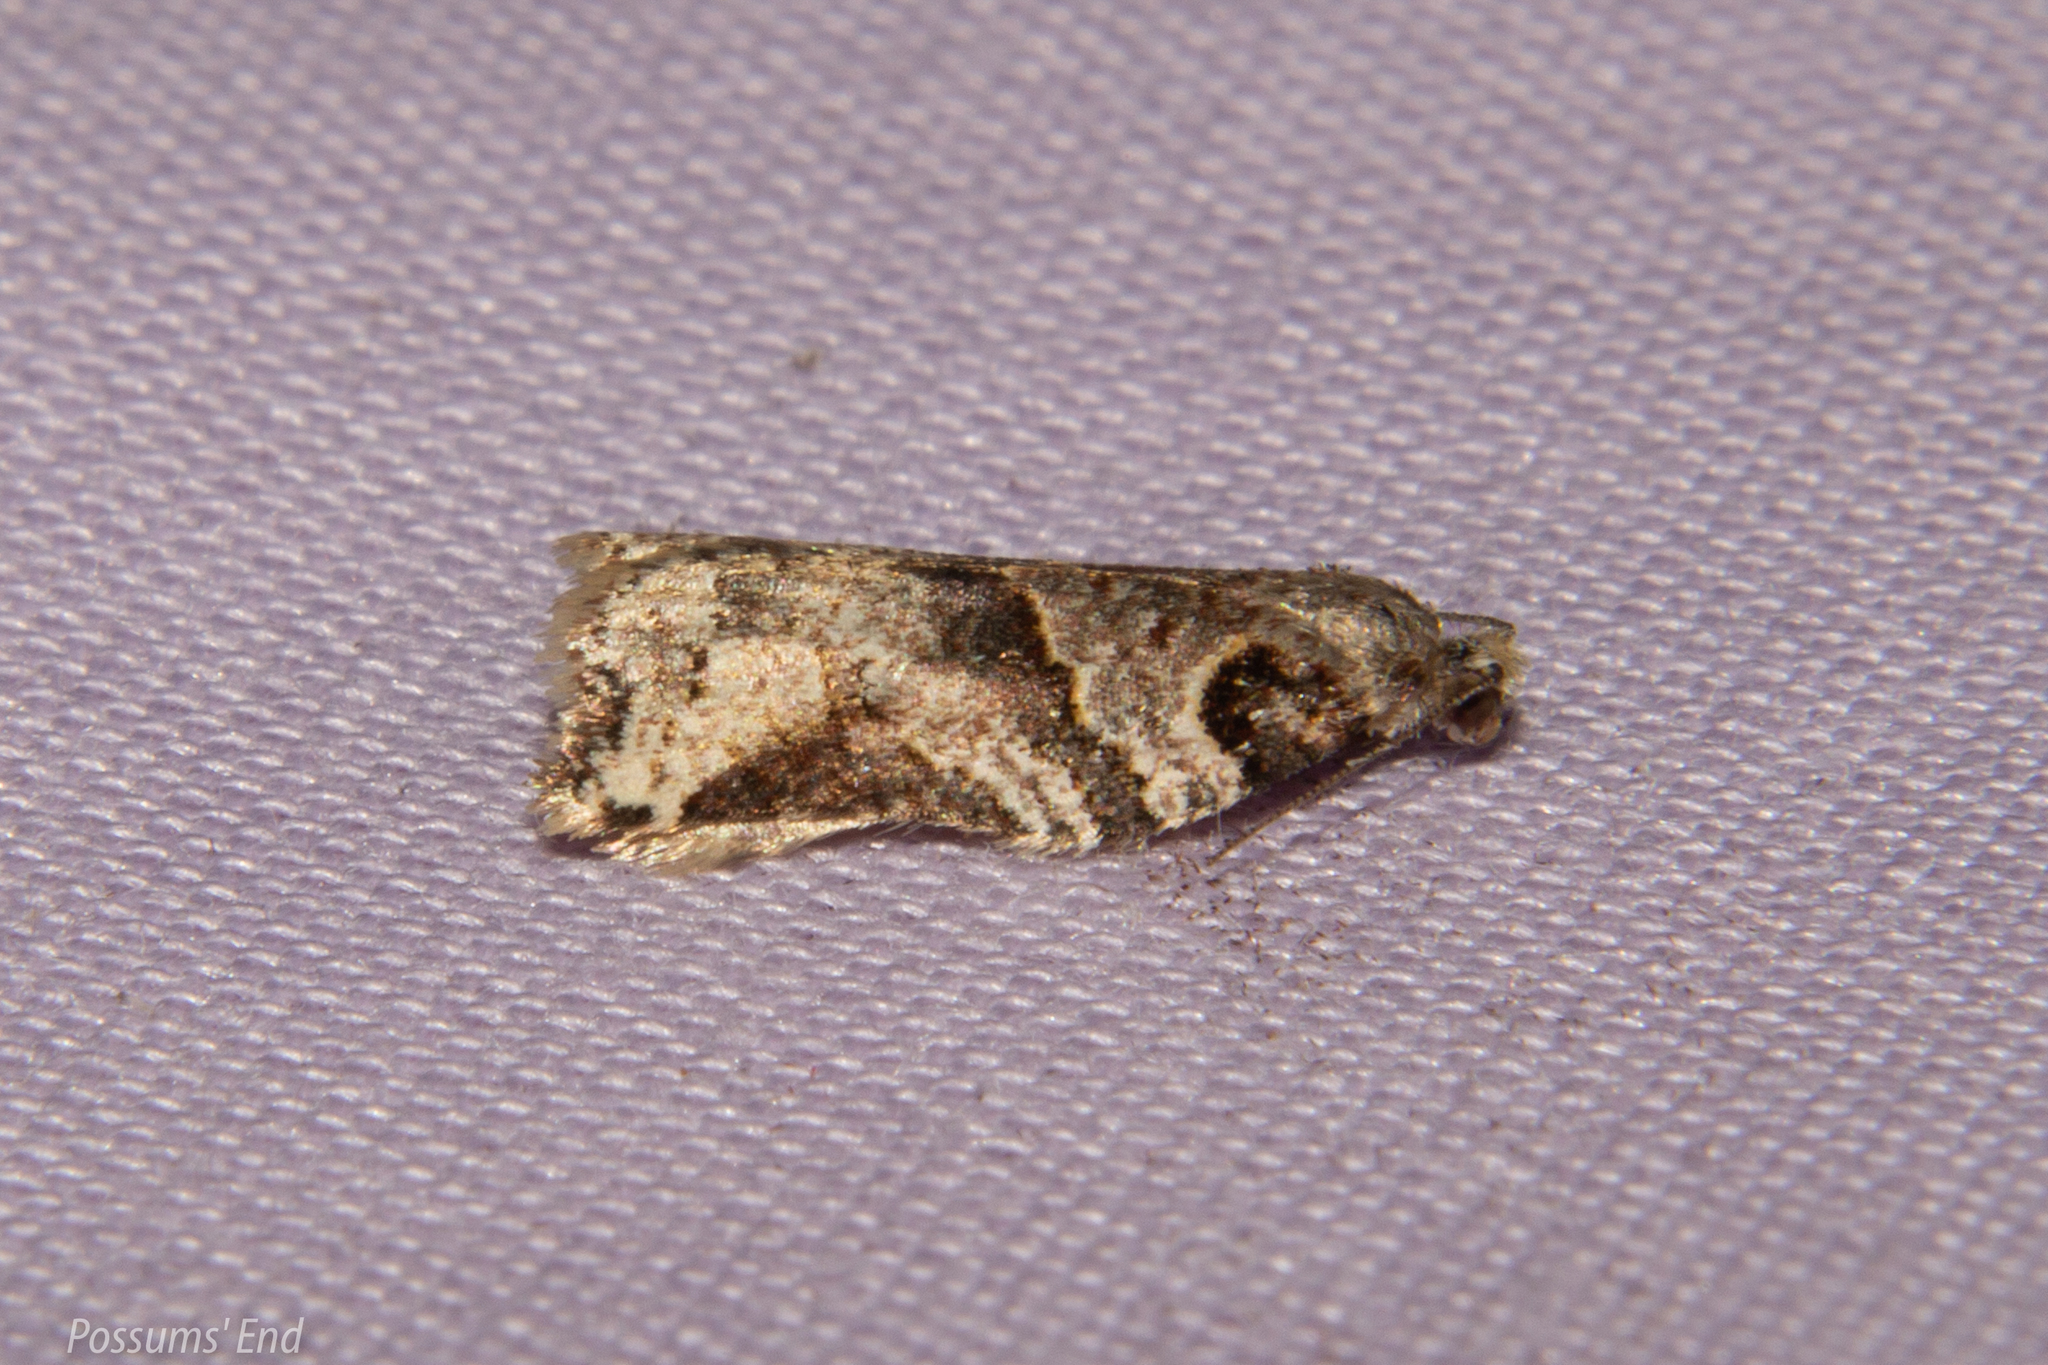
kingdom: Animalia
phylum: Arthropoda
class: Insecta
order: Lepidoptera
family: Tortricidae
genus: Harmologa
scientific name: Harmologa amplexana
